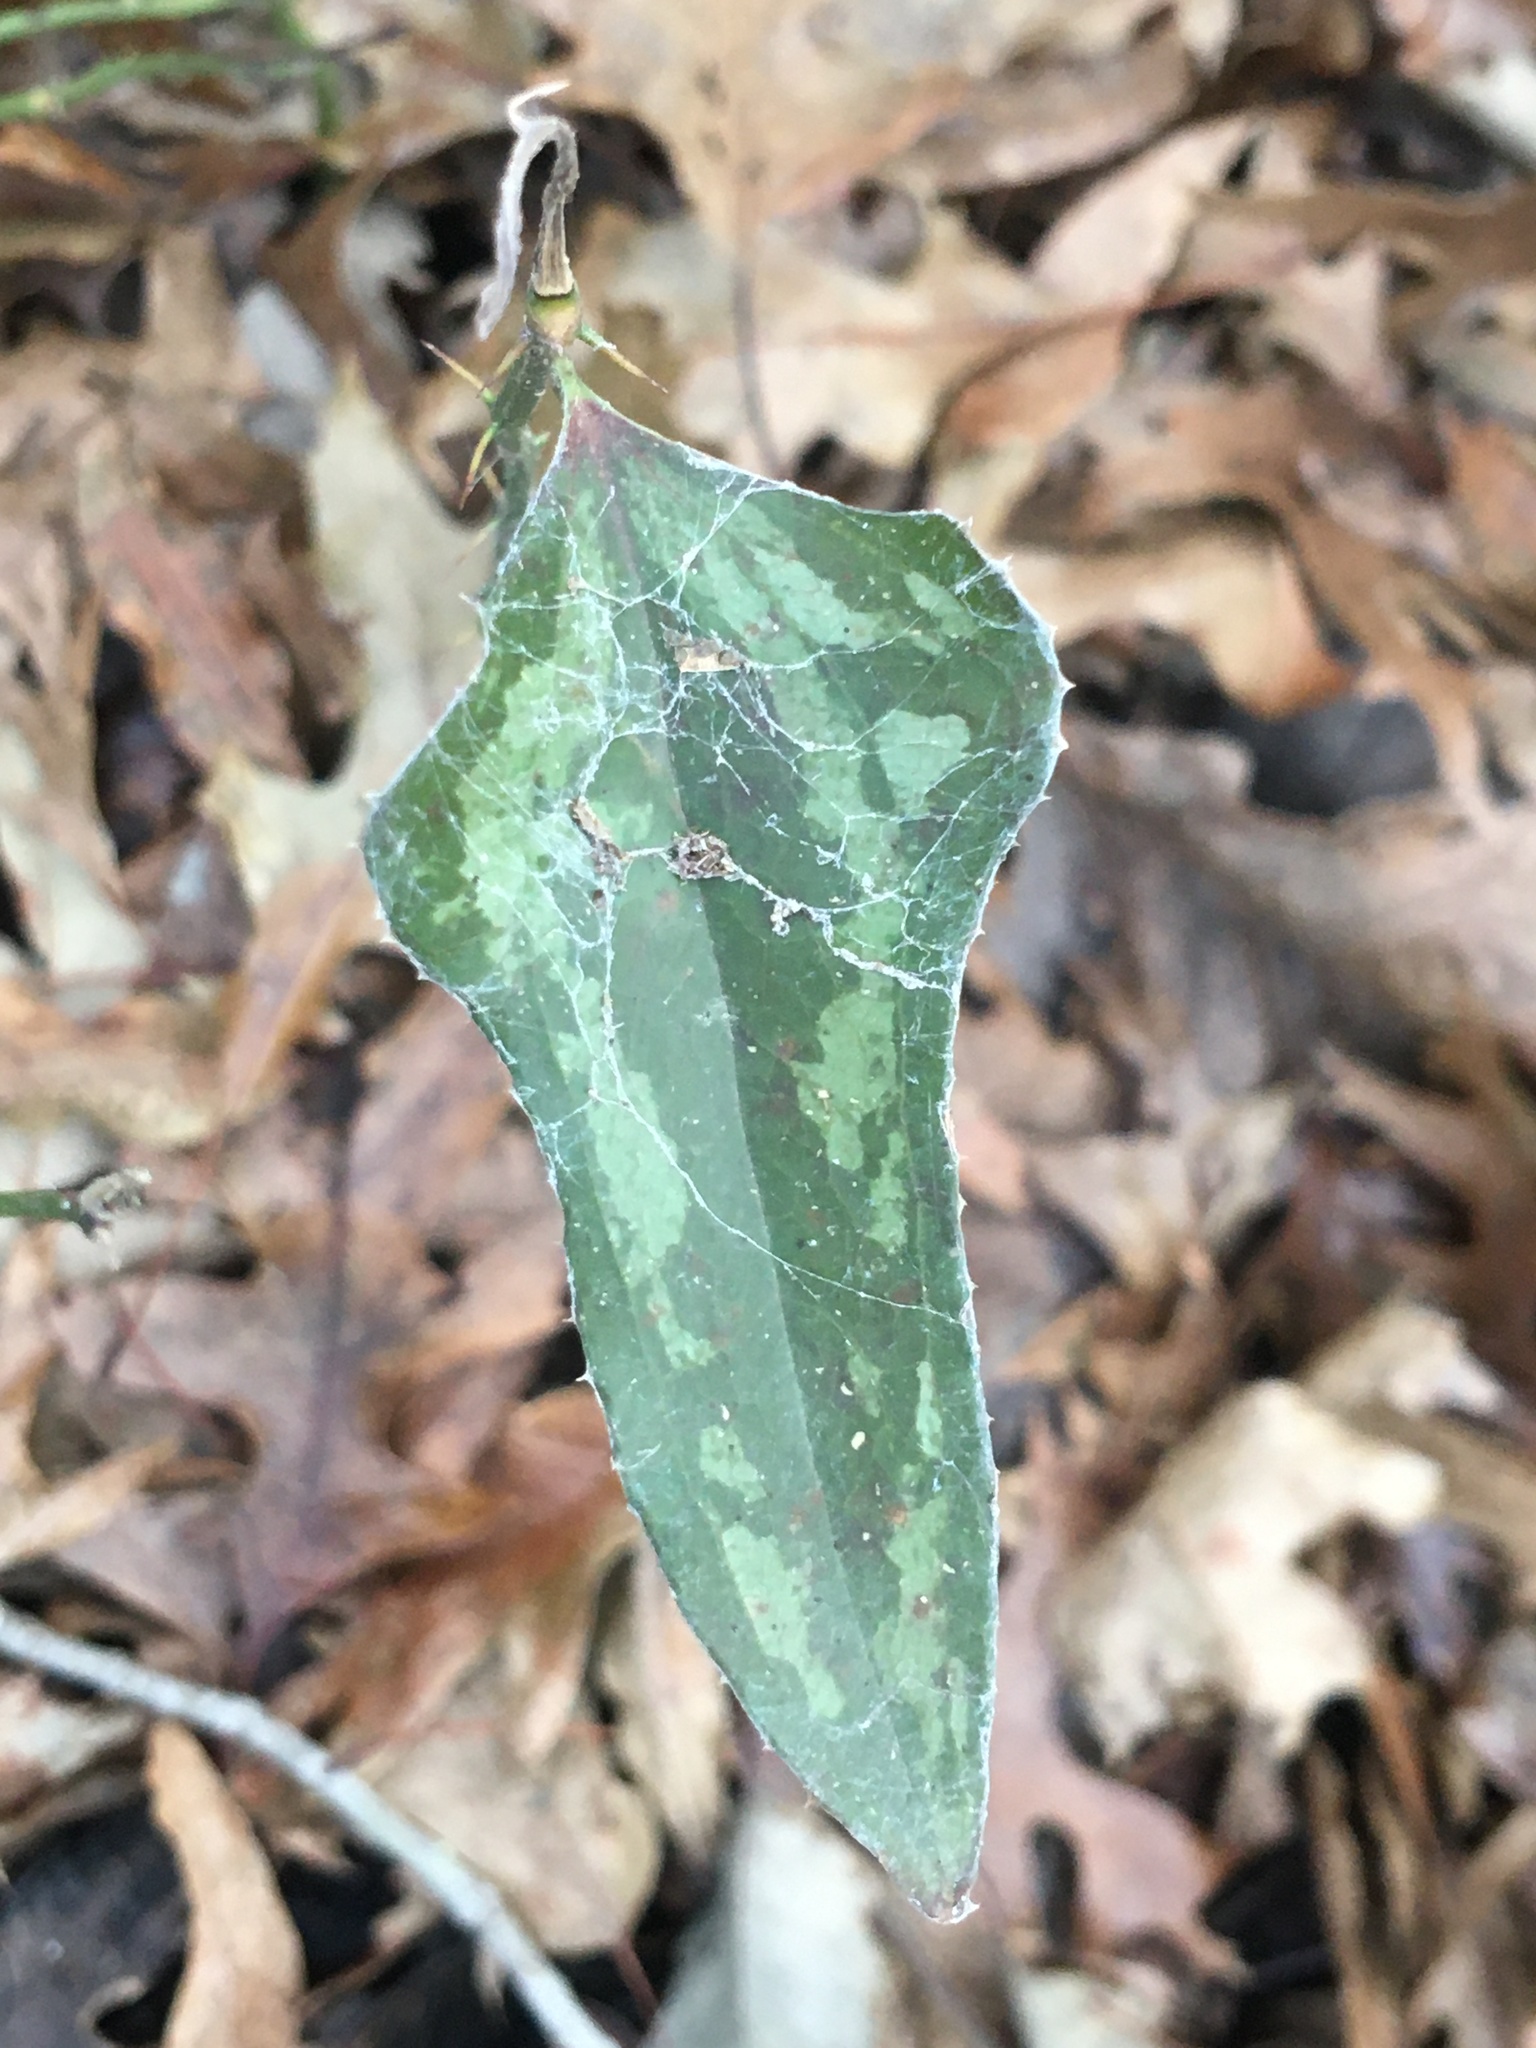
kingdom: Plantae
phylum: Tracheophyta
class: Liliopsida
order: Liliales
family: Smilacaceae
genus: Smilax
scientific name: Smilax bona-nox
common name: Catbrier
